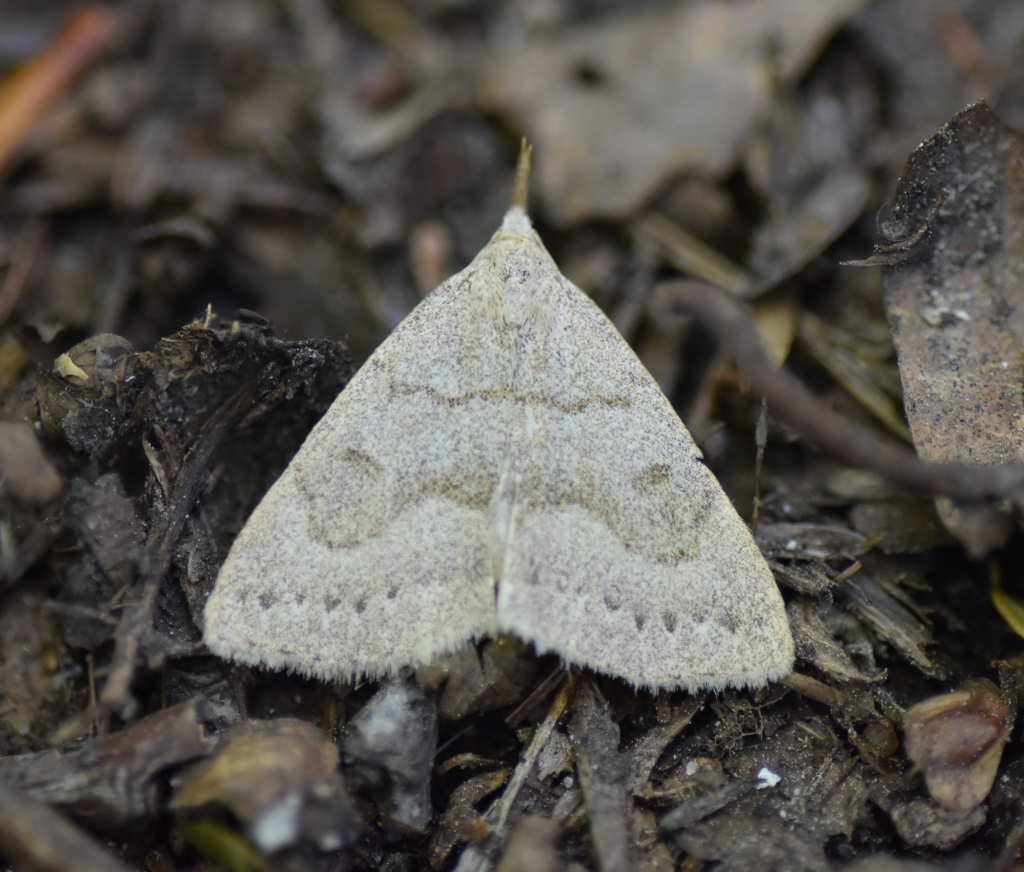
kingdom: Animalia
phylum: Arthropoda
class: Insecta
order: Lepidoptera
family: Erebidae
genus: Macrochilo
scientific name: Macrochilo morbidalis
